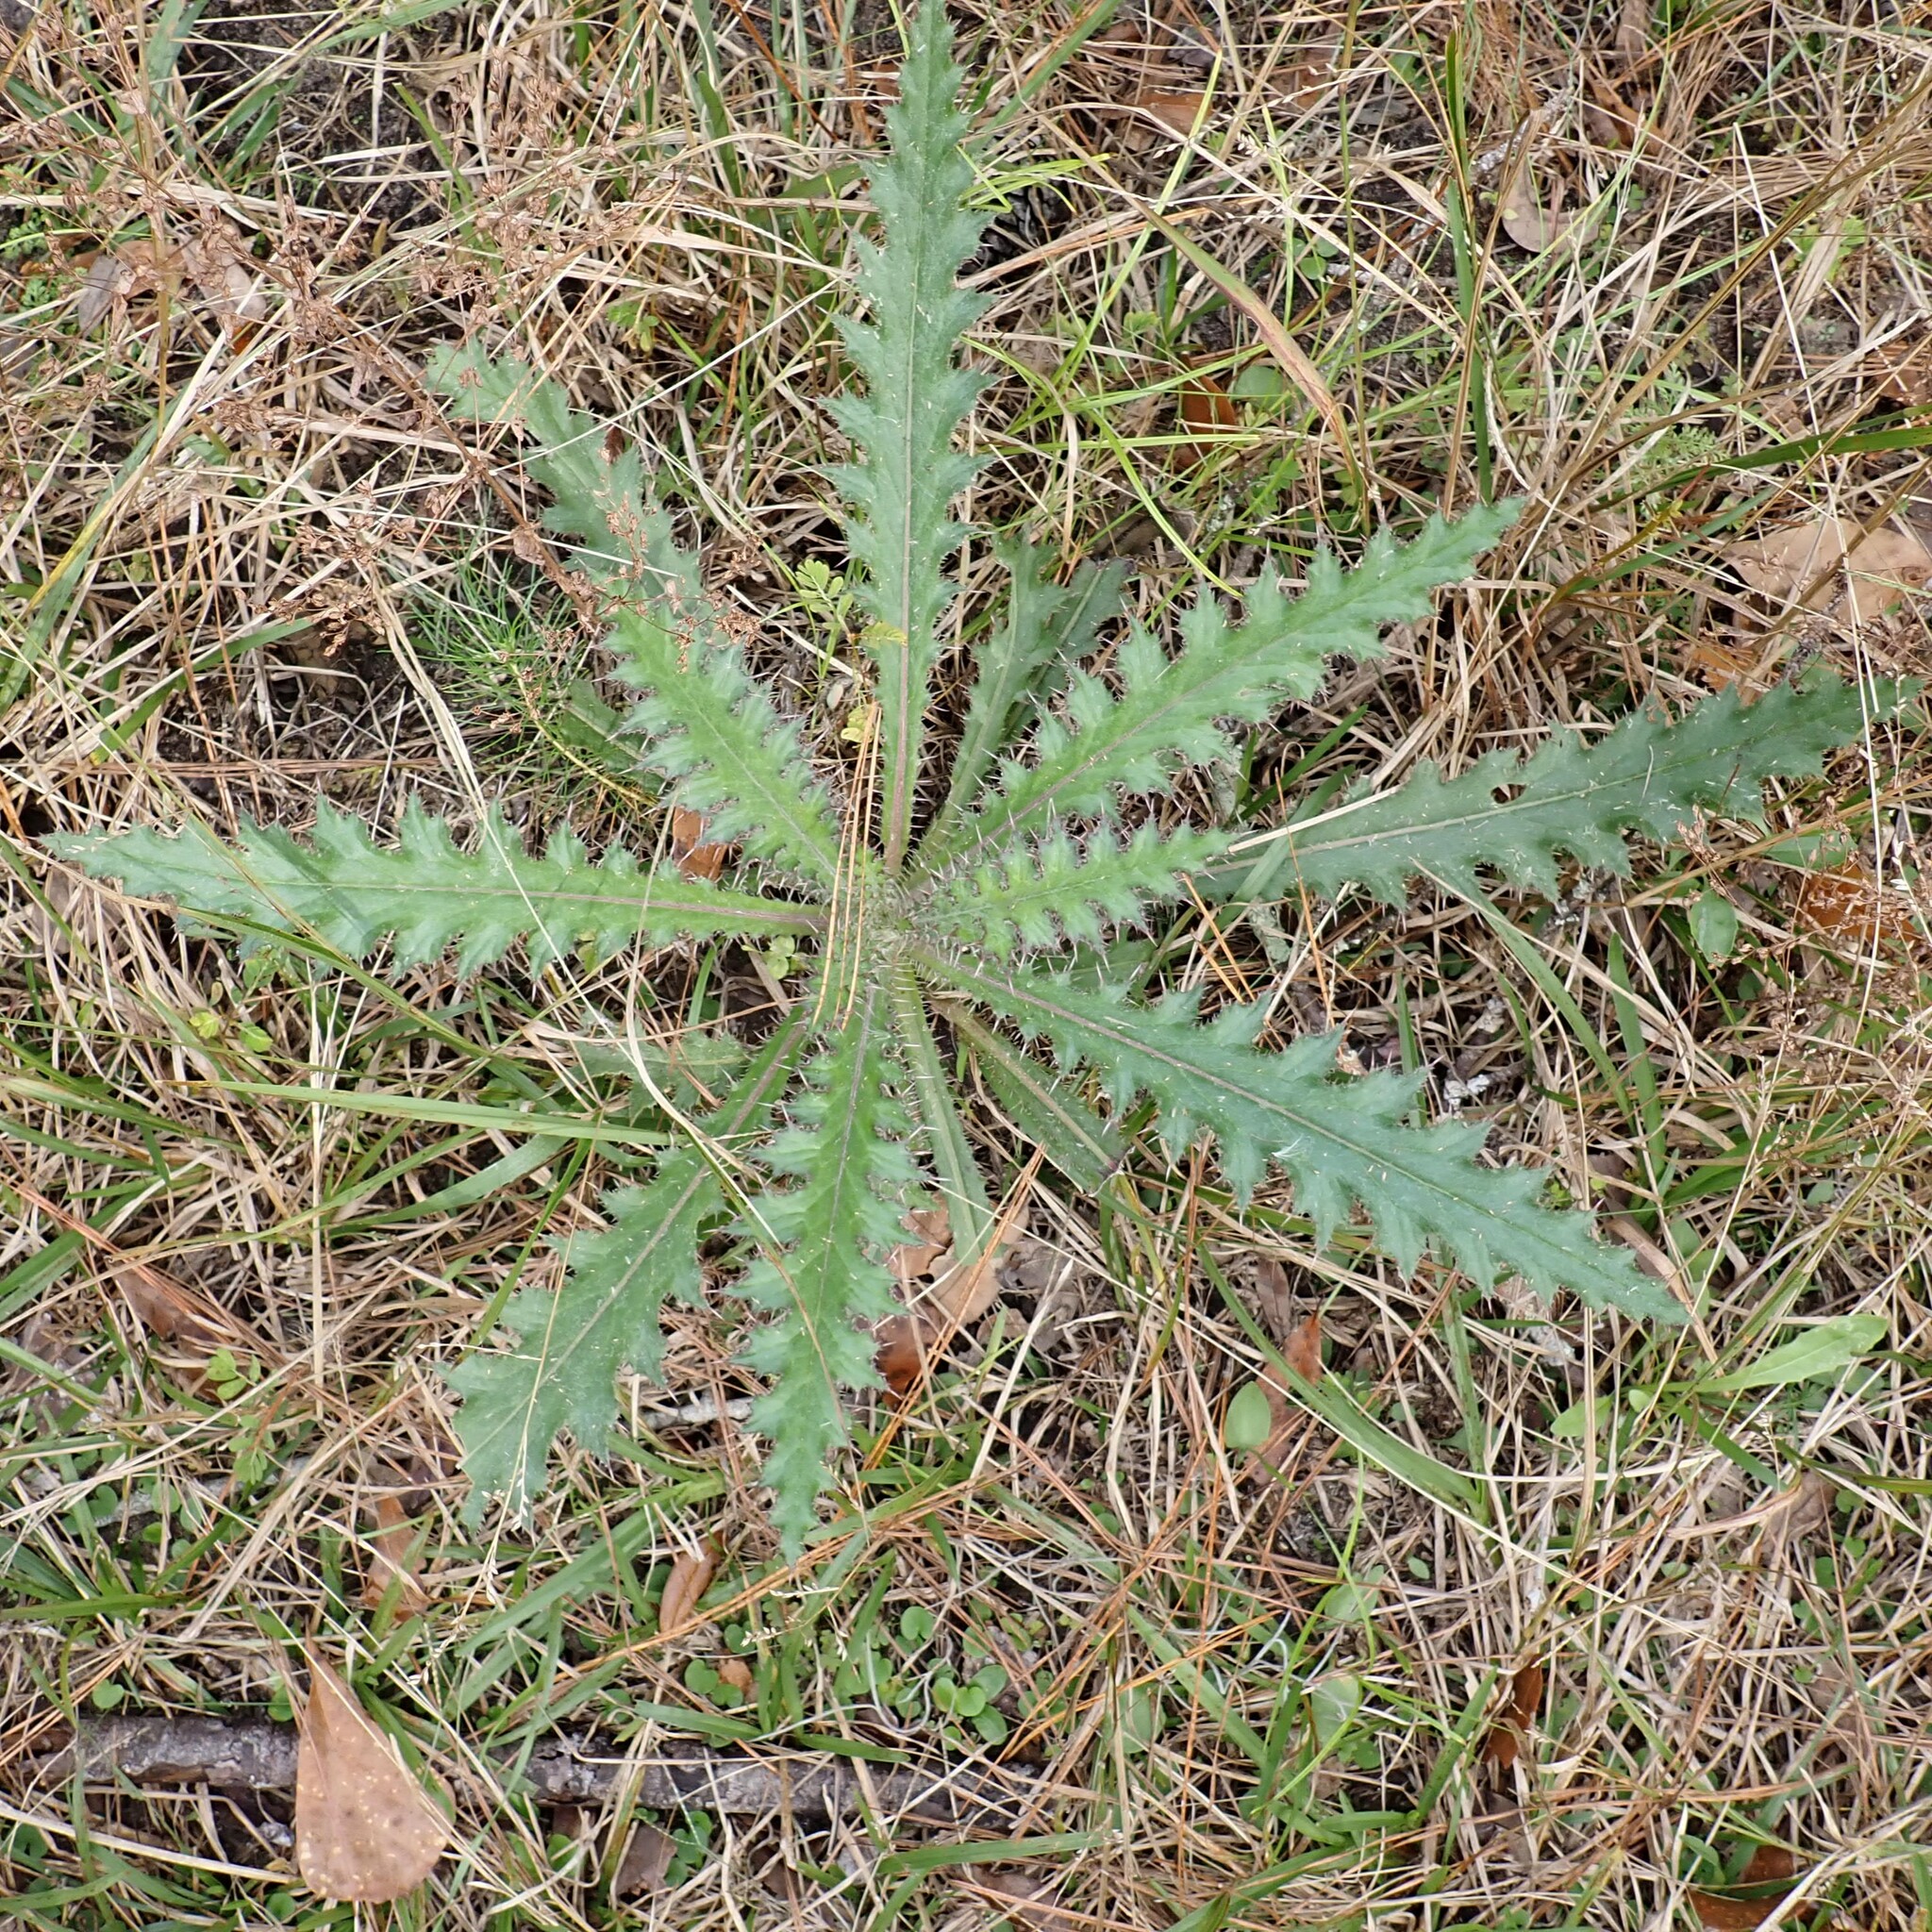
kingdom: Plantae
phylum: Tracheophyta
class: Magnoliopsida
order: Asterales
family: Asteraceae
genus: Cirsium
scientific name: Cirsium horridulum
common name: Bristly thistle
